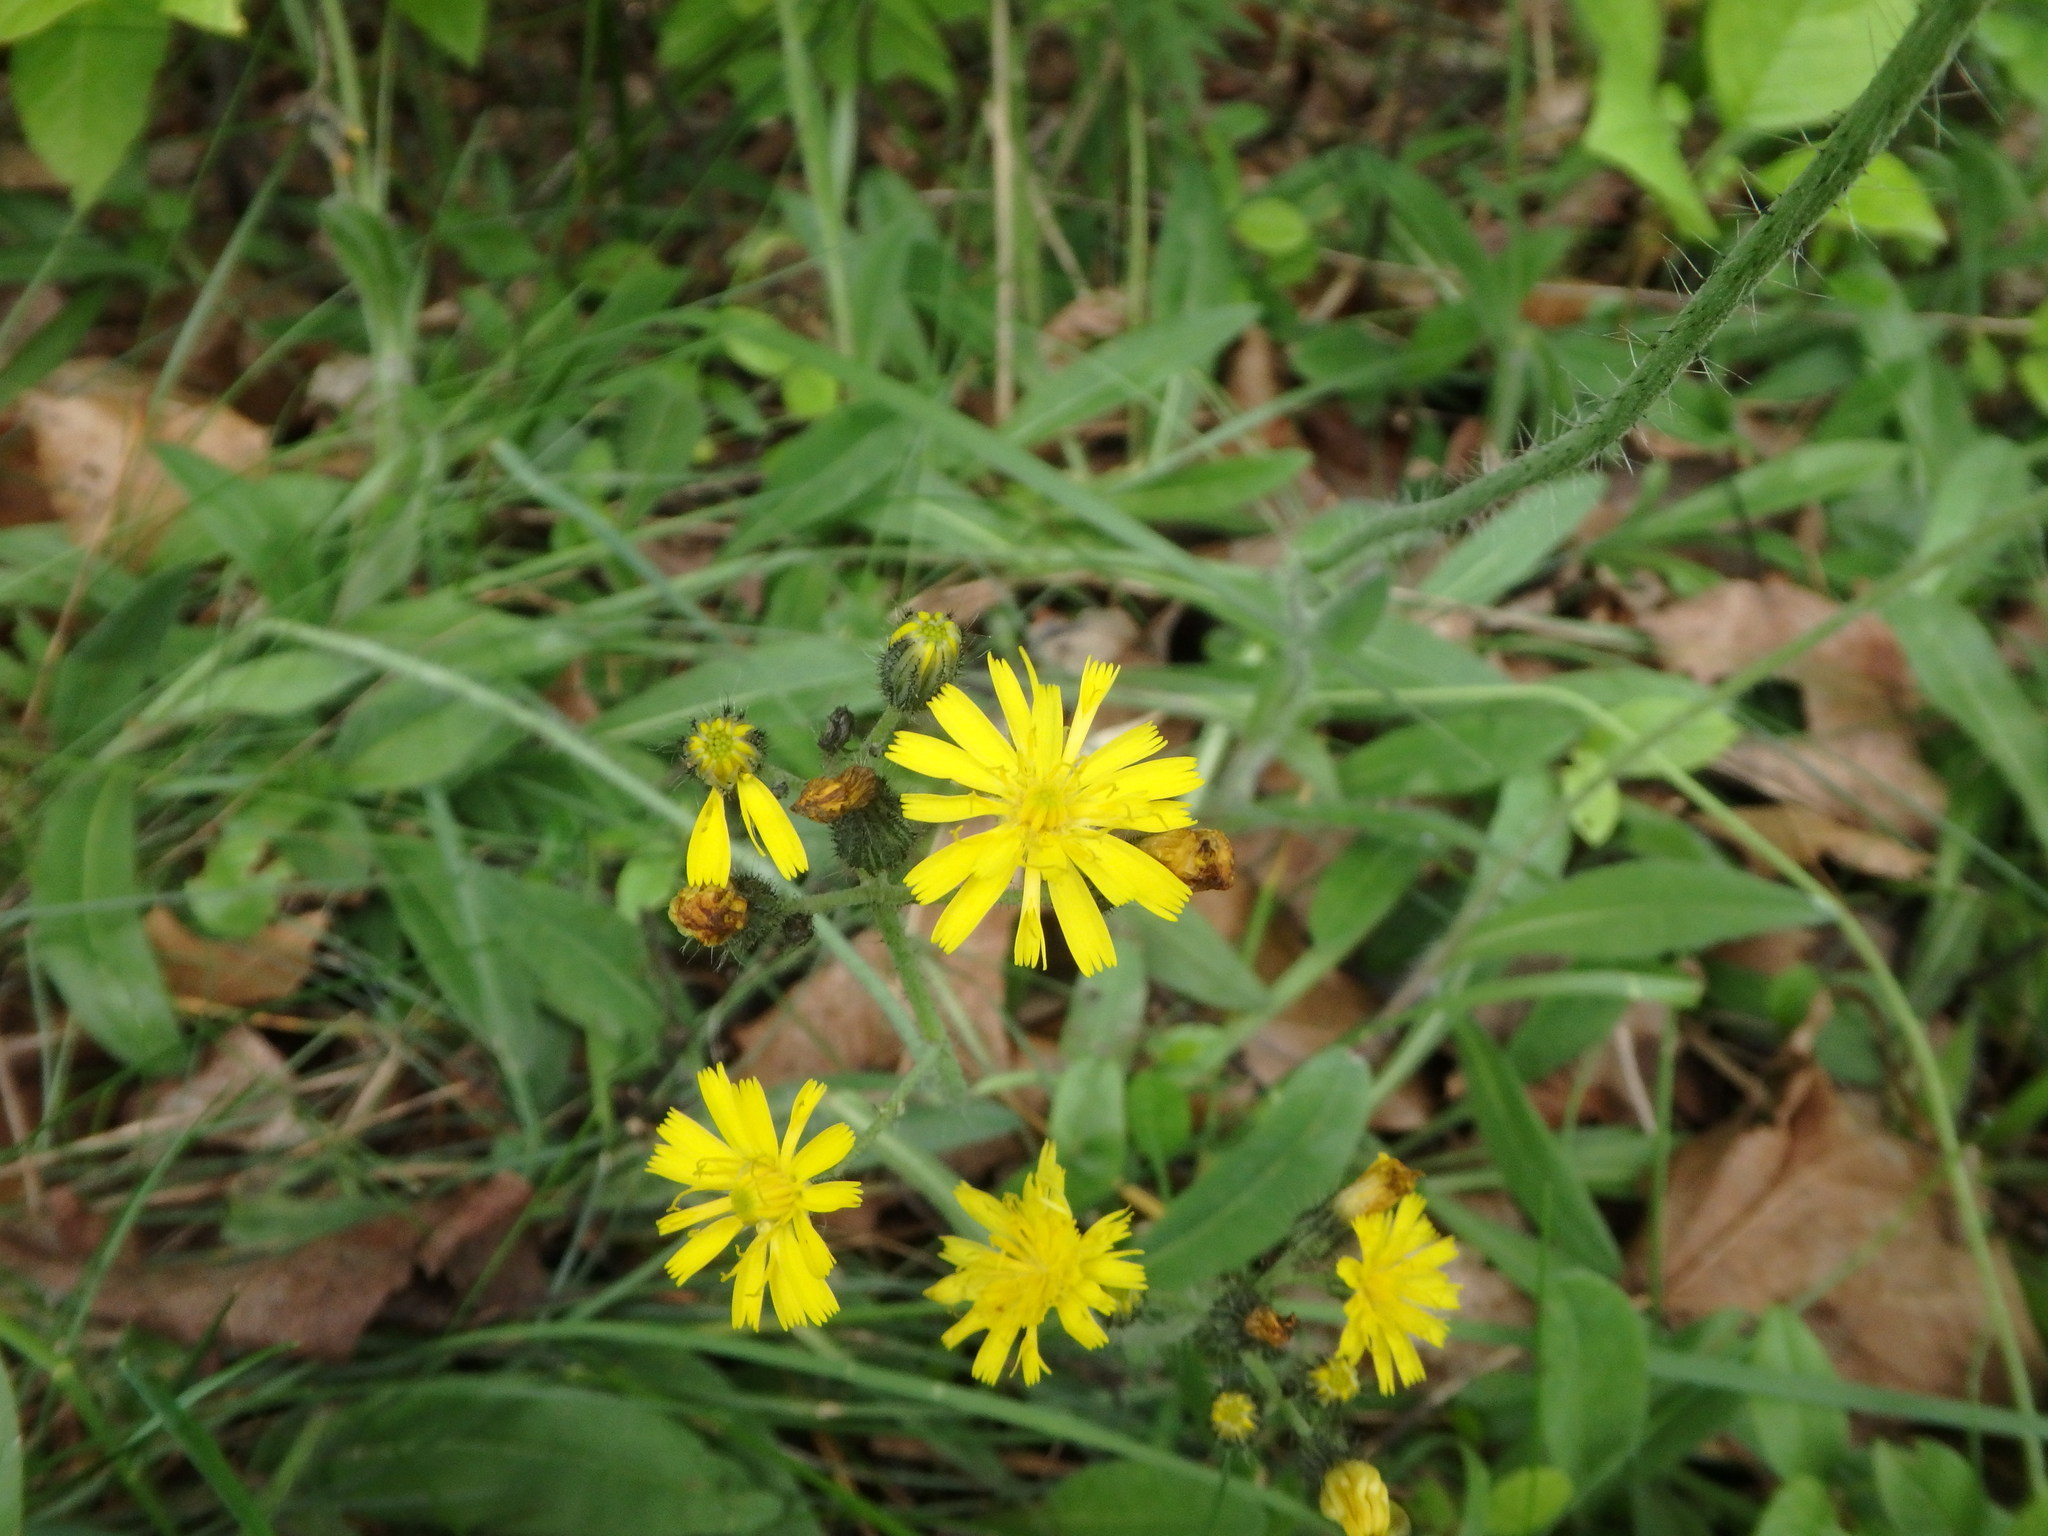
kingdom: Plantae
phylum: Tracheophyta
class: Magnoliopsida
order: Asterales
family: Asteraceae
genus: Pilosella
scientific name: Pilosella caespitosa
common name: Yellow fox-and-cubs
